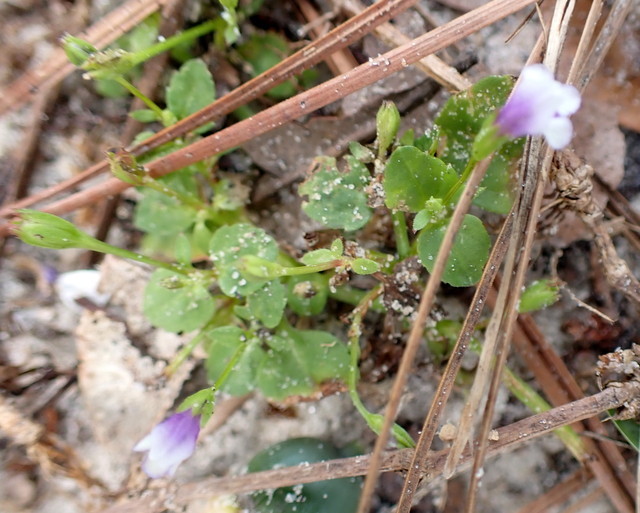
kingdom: Plantae
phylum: Tracheophyta
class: Magnoliopsida
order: Lamiales
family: Linderniaceae
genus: Torenia
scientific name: Torenia crustacea
